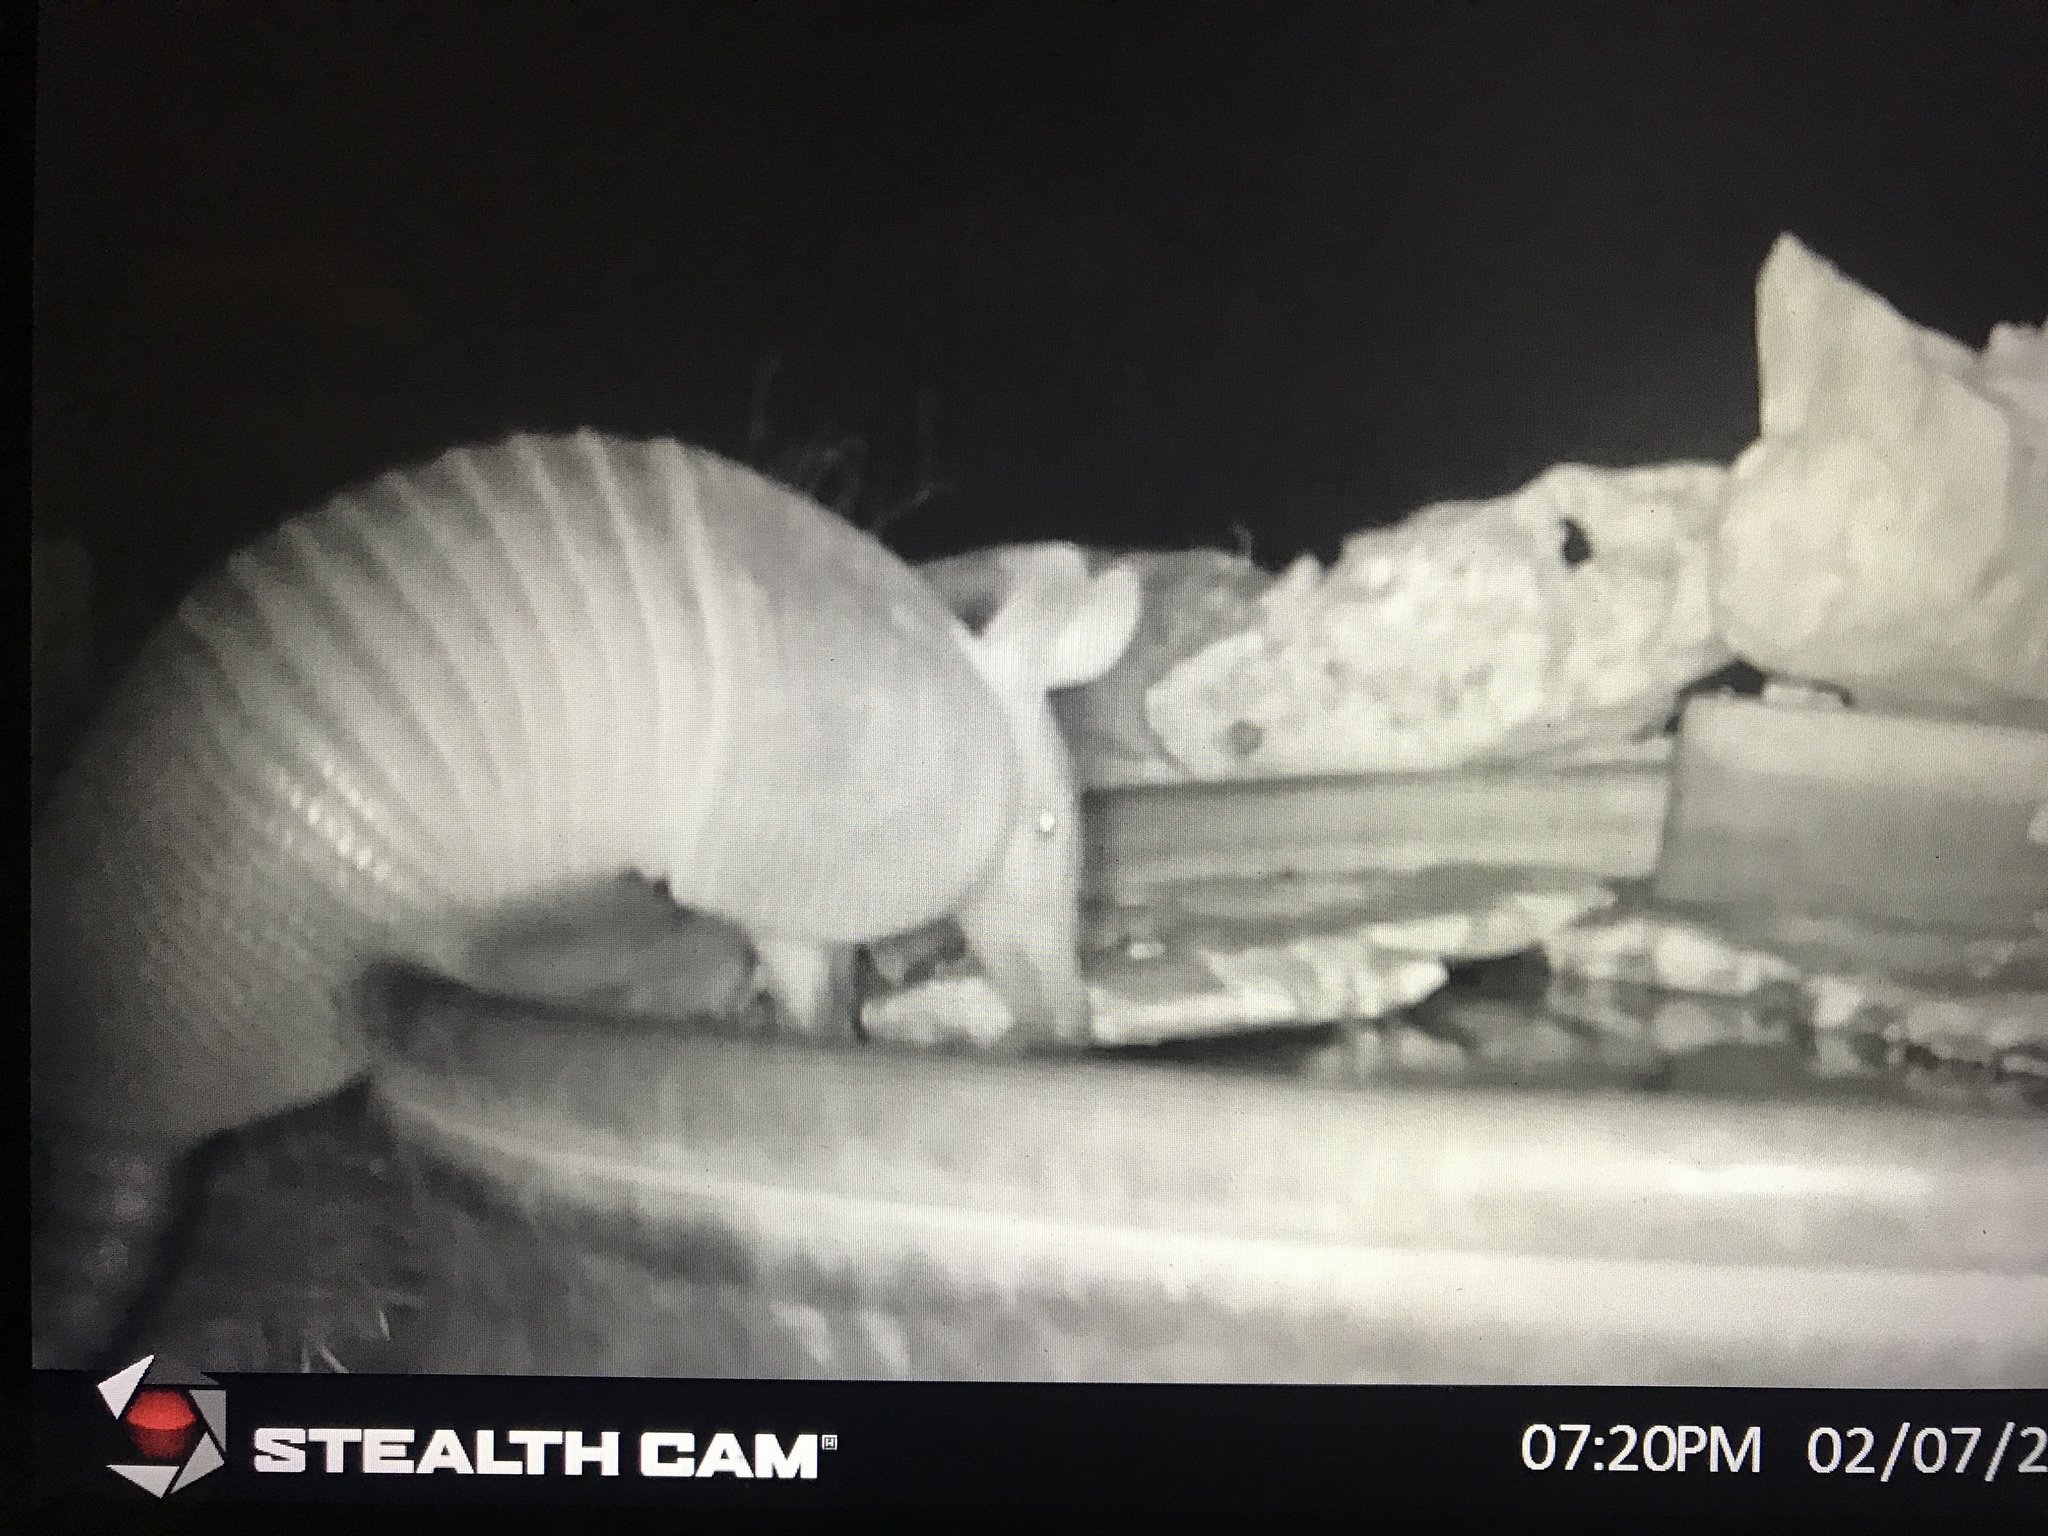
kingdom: Animalia
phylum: Chordata
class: Mammalia
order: Cingulata
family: Dasypodidae
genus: Dasypus
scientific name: Dasypus novemcinctus
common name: Nine-banded armadillo
